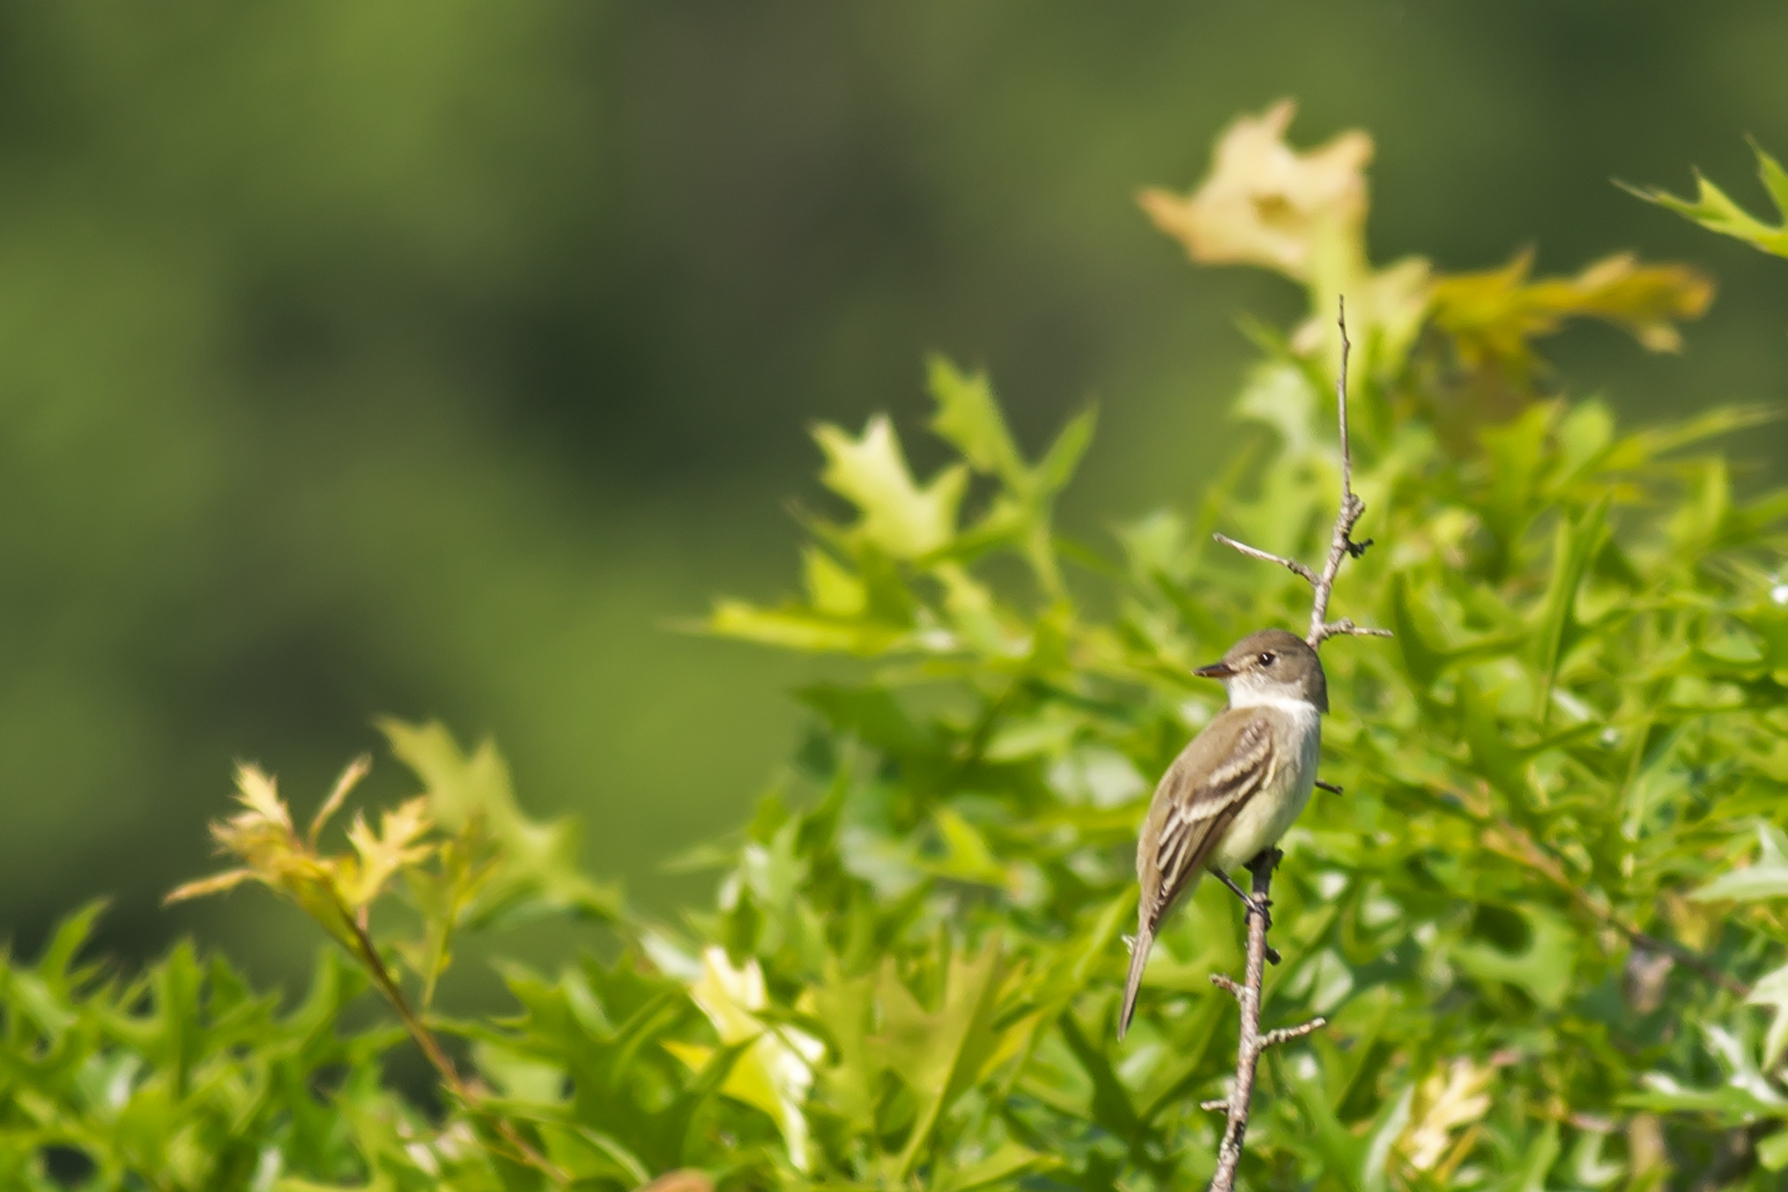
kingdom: Animalia
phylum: Chordata
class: Aves
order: Passeriformes
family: Tyrannidae
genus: Empidonax
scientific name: Empidonax traillii
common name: Willow flycatcher
